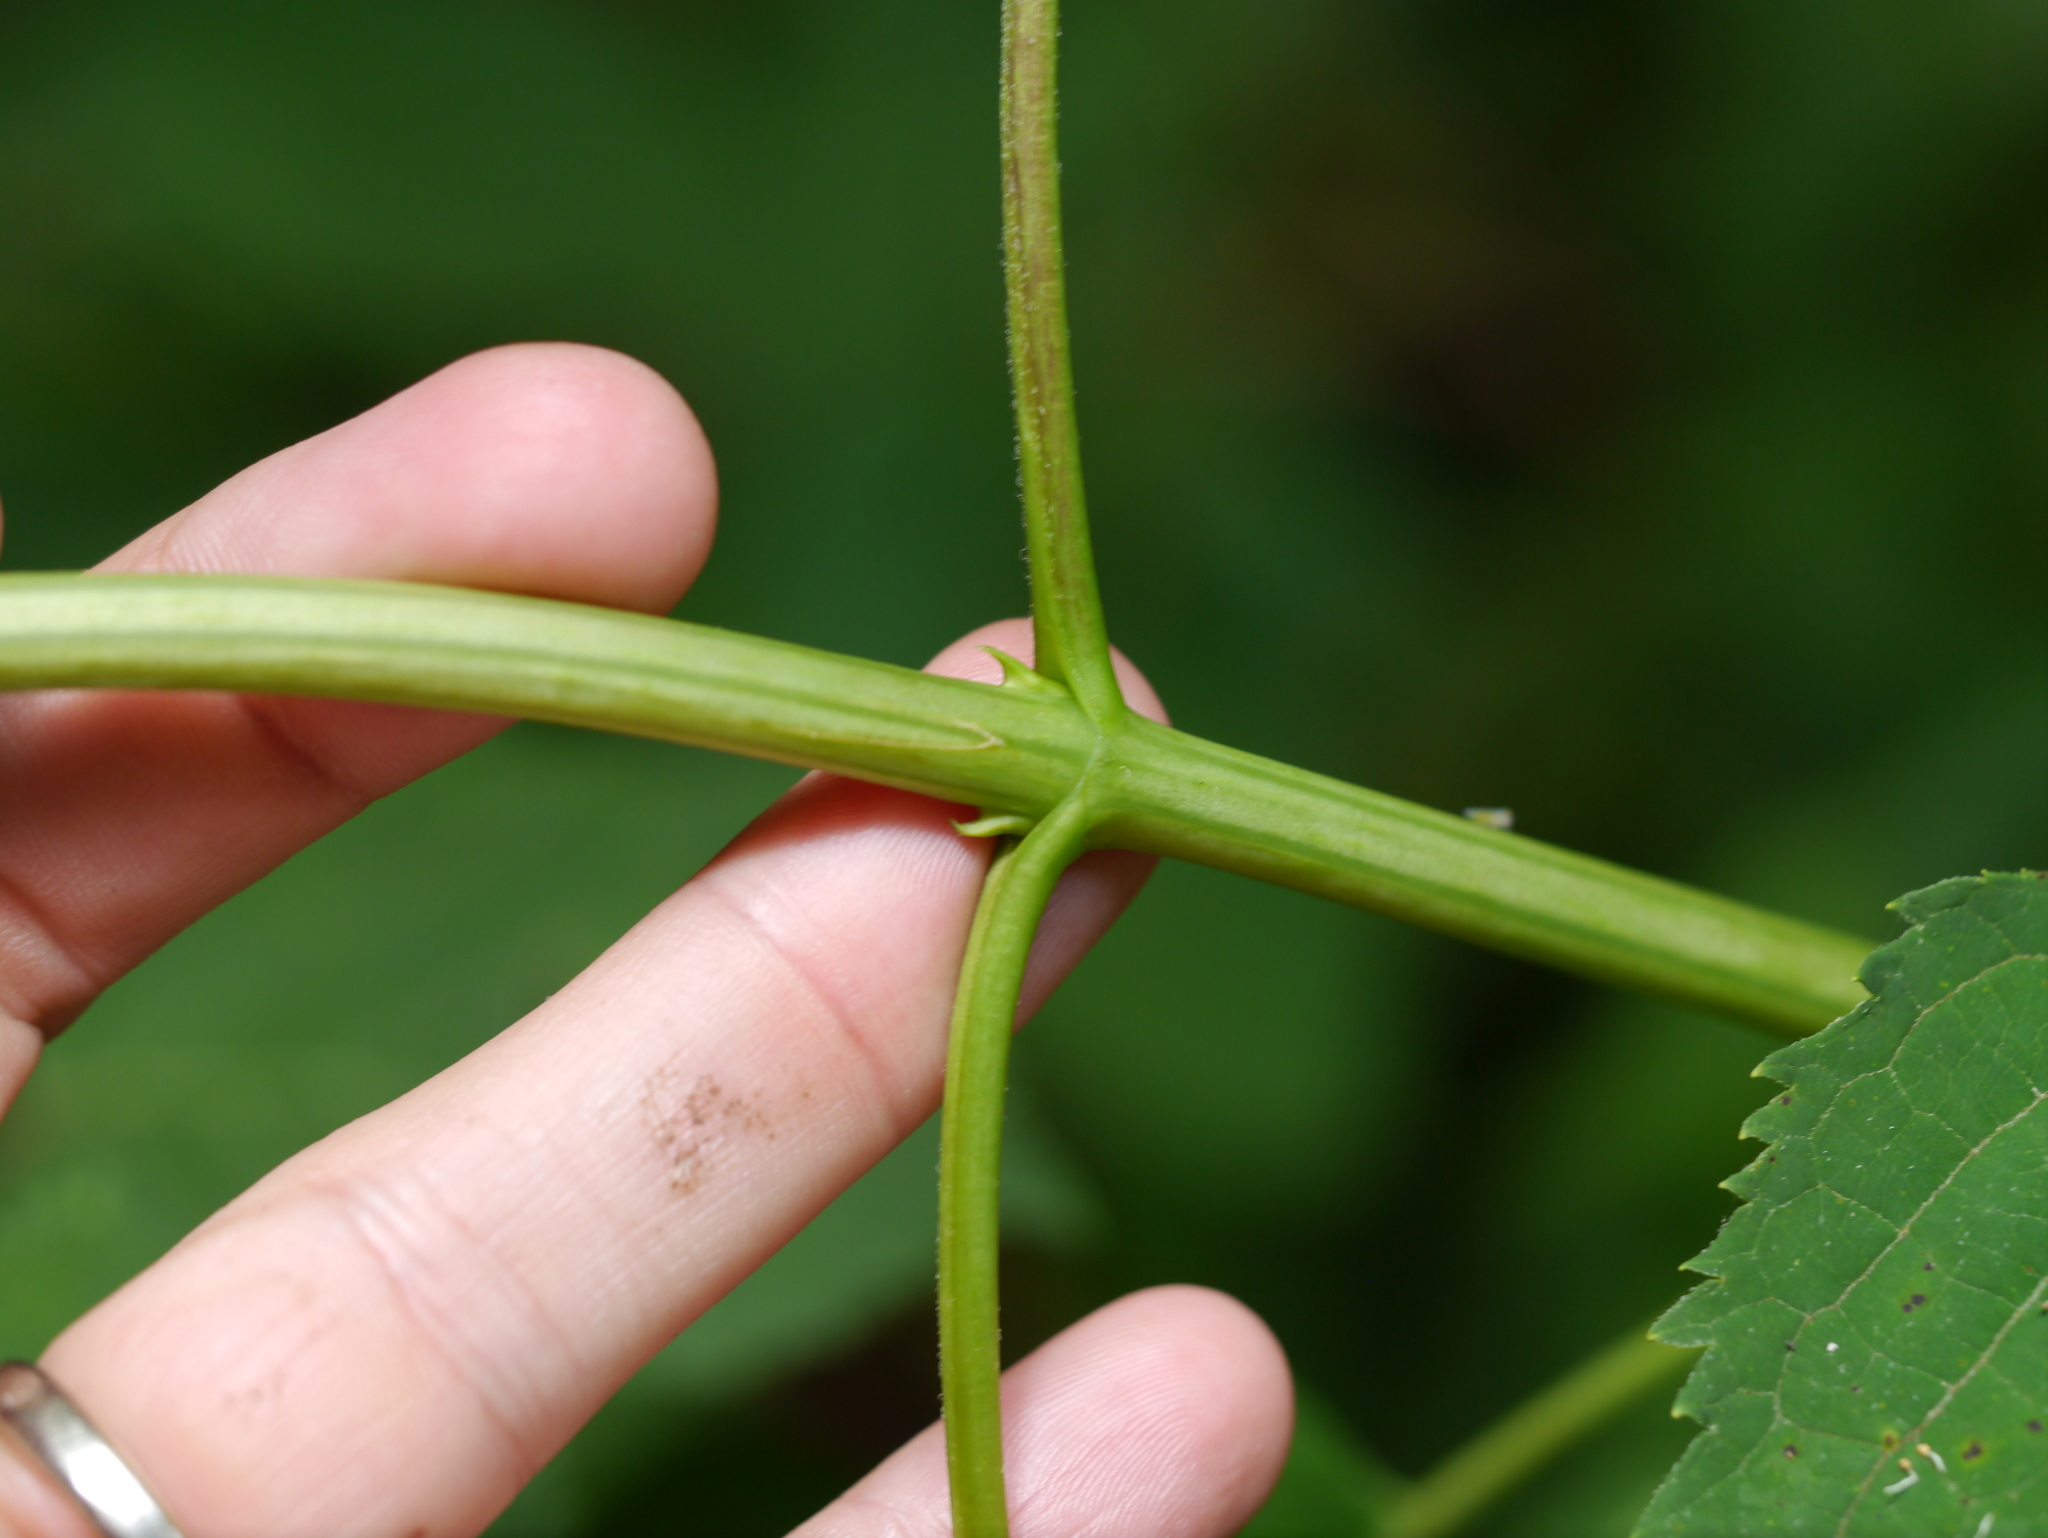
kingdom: Plantae
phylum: Tracheophyta
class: Magnoliopsida
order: Asterales
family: Asteraceae
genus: Ageratina
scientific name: Ageratina altissima
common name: White snakeroot
